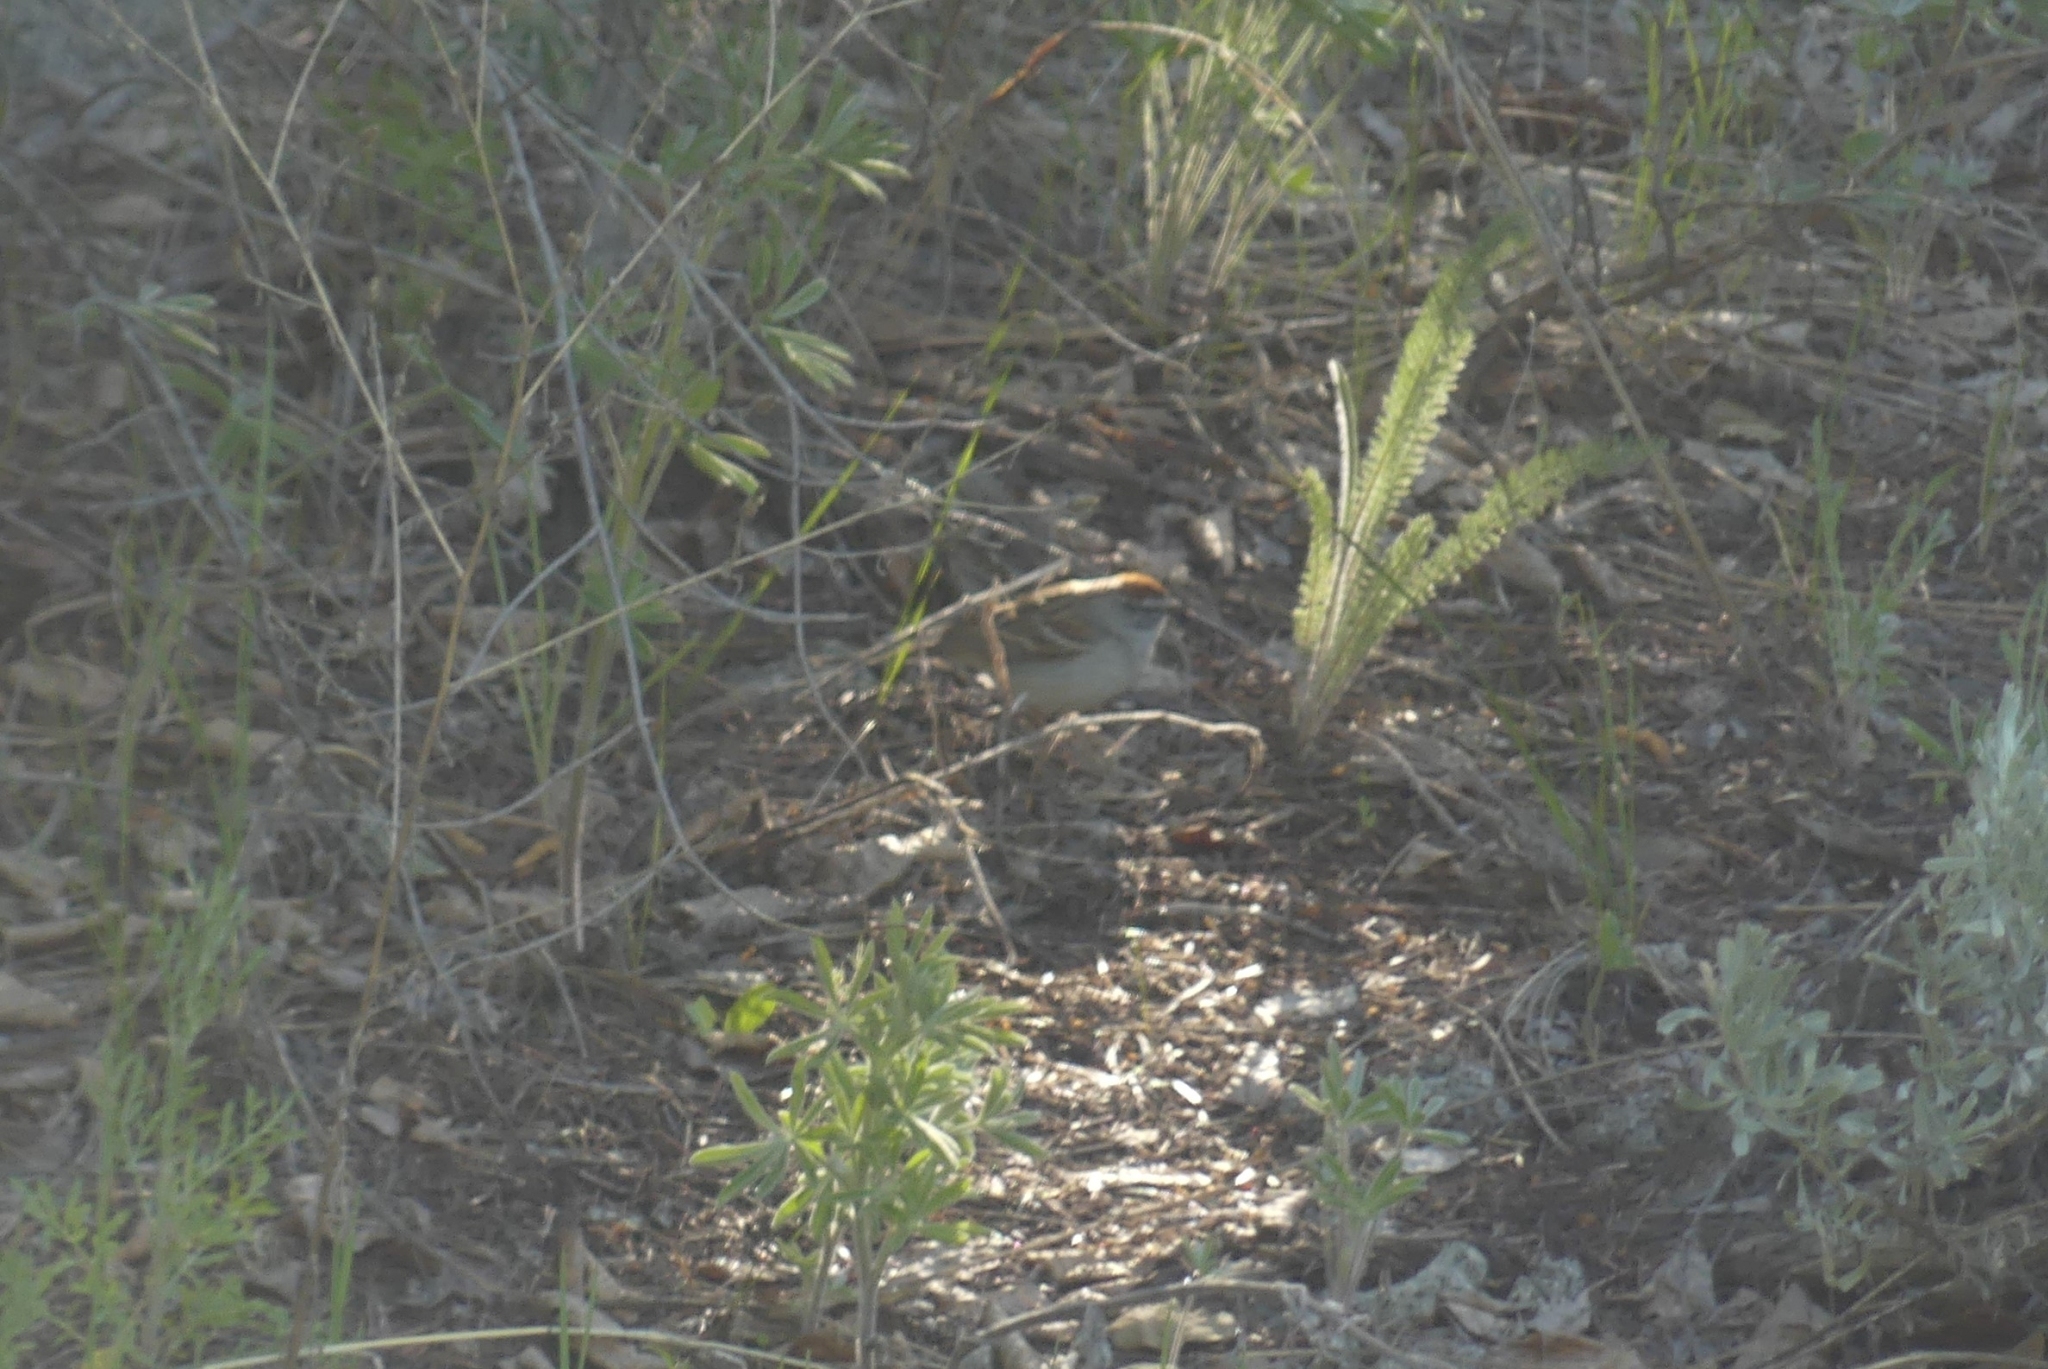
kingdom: Animalia
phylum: Chordata
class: Aves
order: Passeriformes
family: Passerellidae
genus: Spizella
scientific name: Spizella passerina
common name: Chipping sparrow
